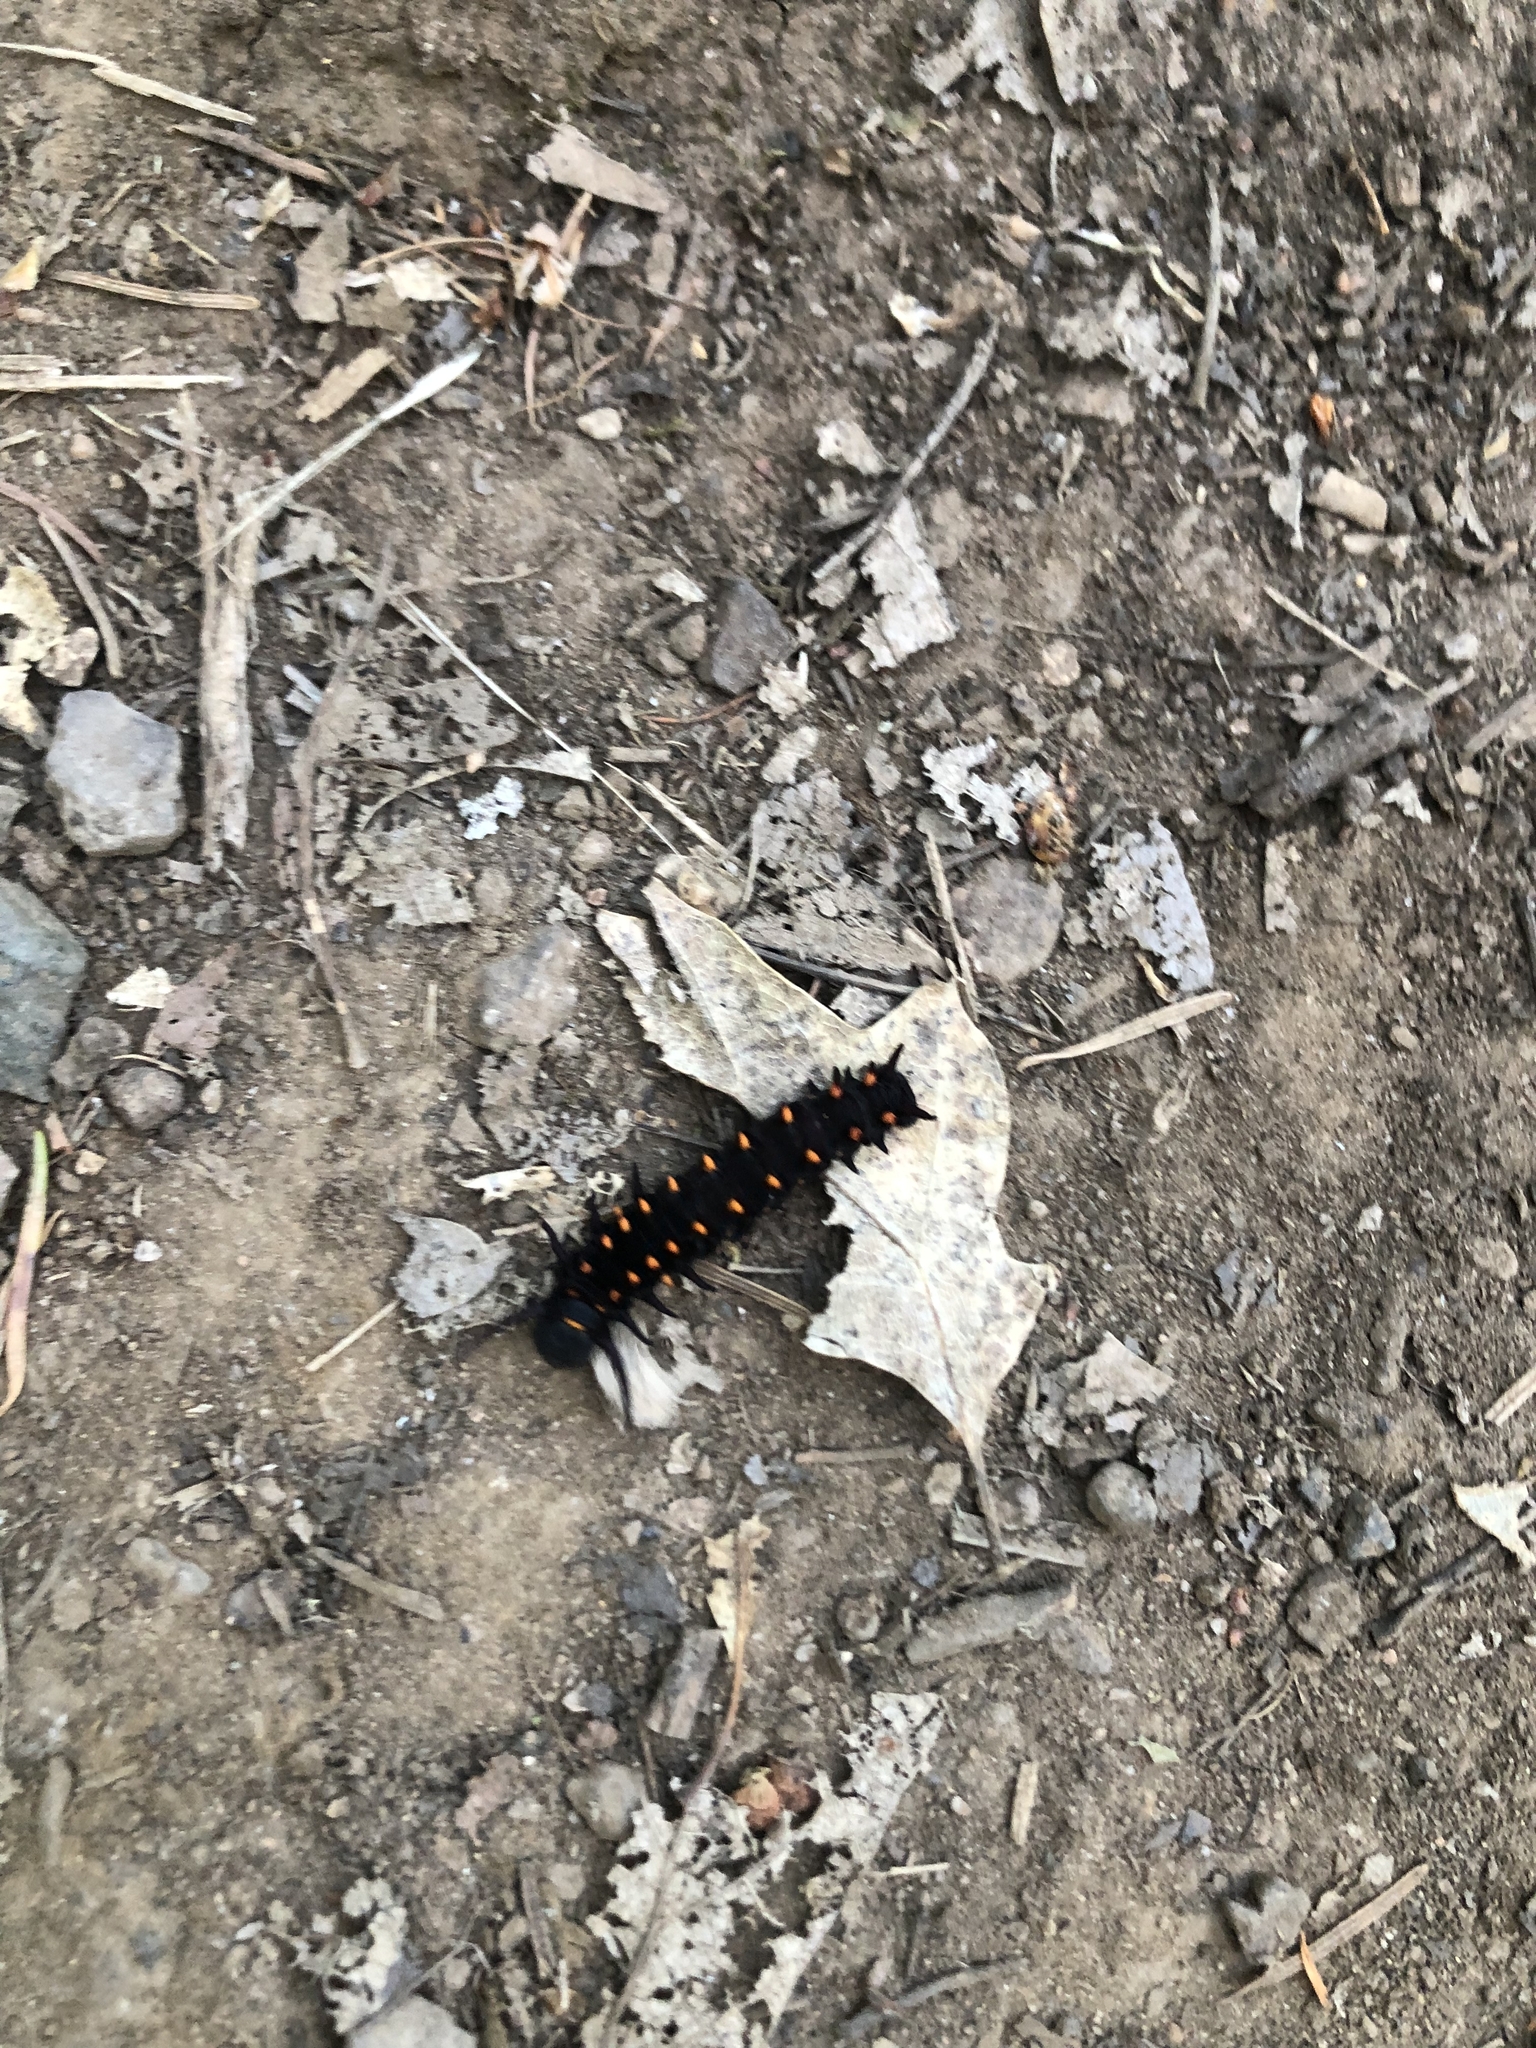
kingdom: Animalia
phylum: Arthropoda
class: Insecta
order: Lepidoptera
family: Papilionidae
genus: Battus
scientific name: Battus philenor
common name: Pipevine swallowtail
